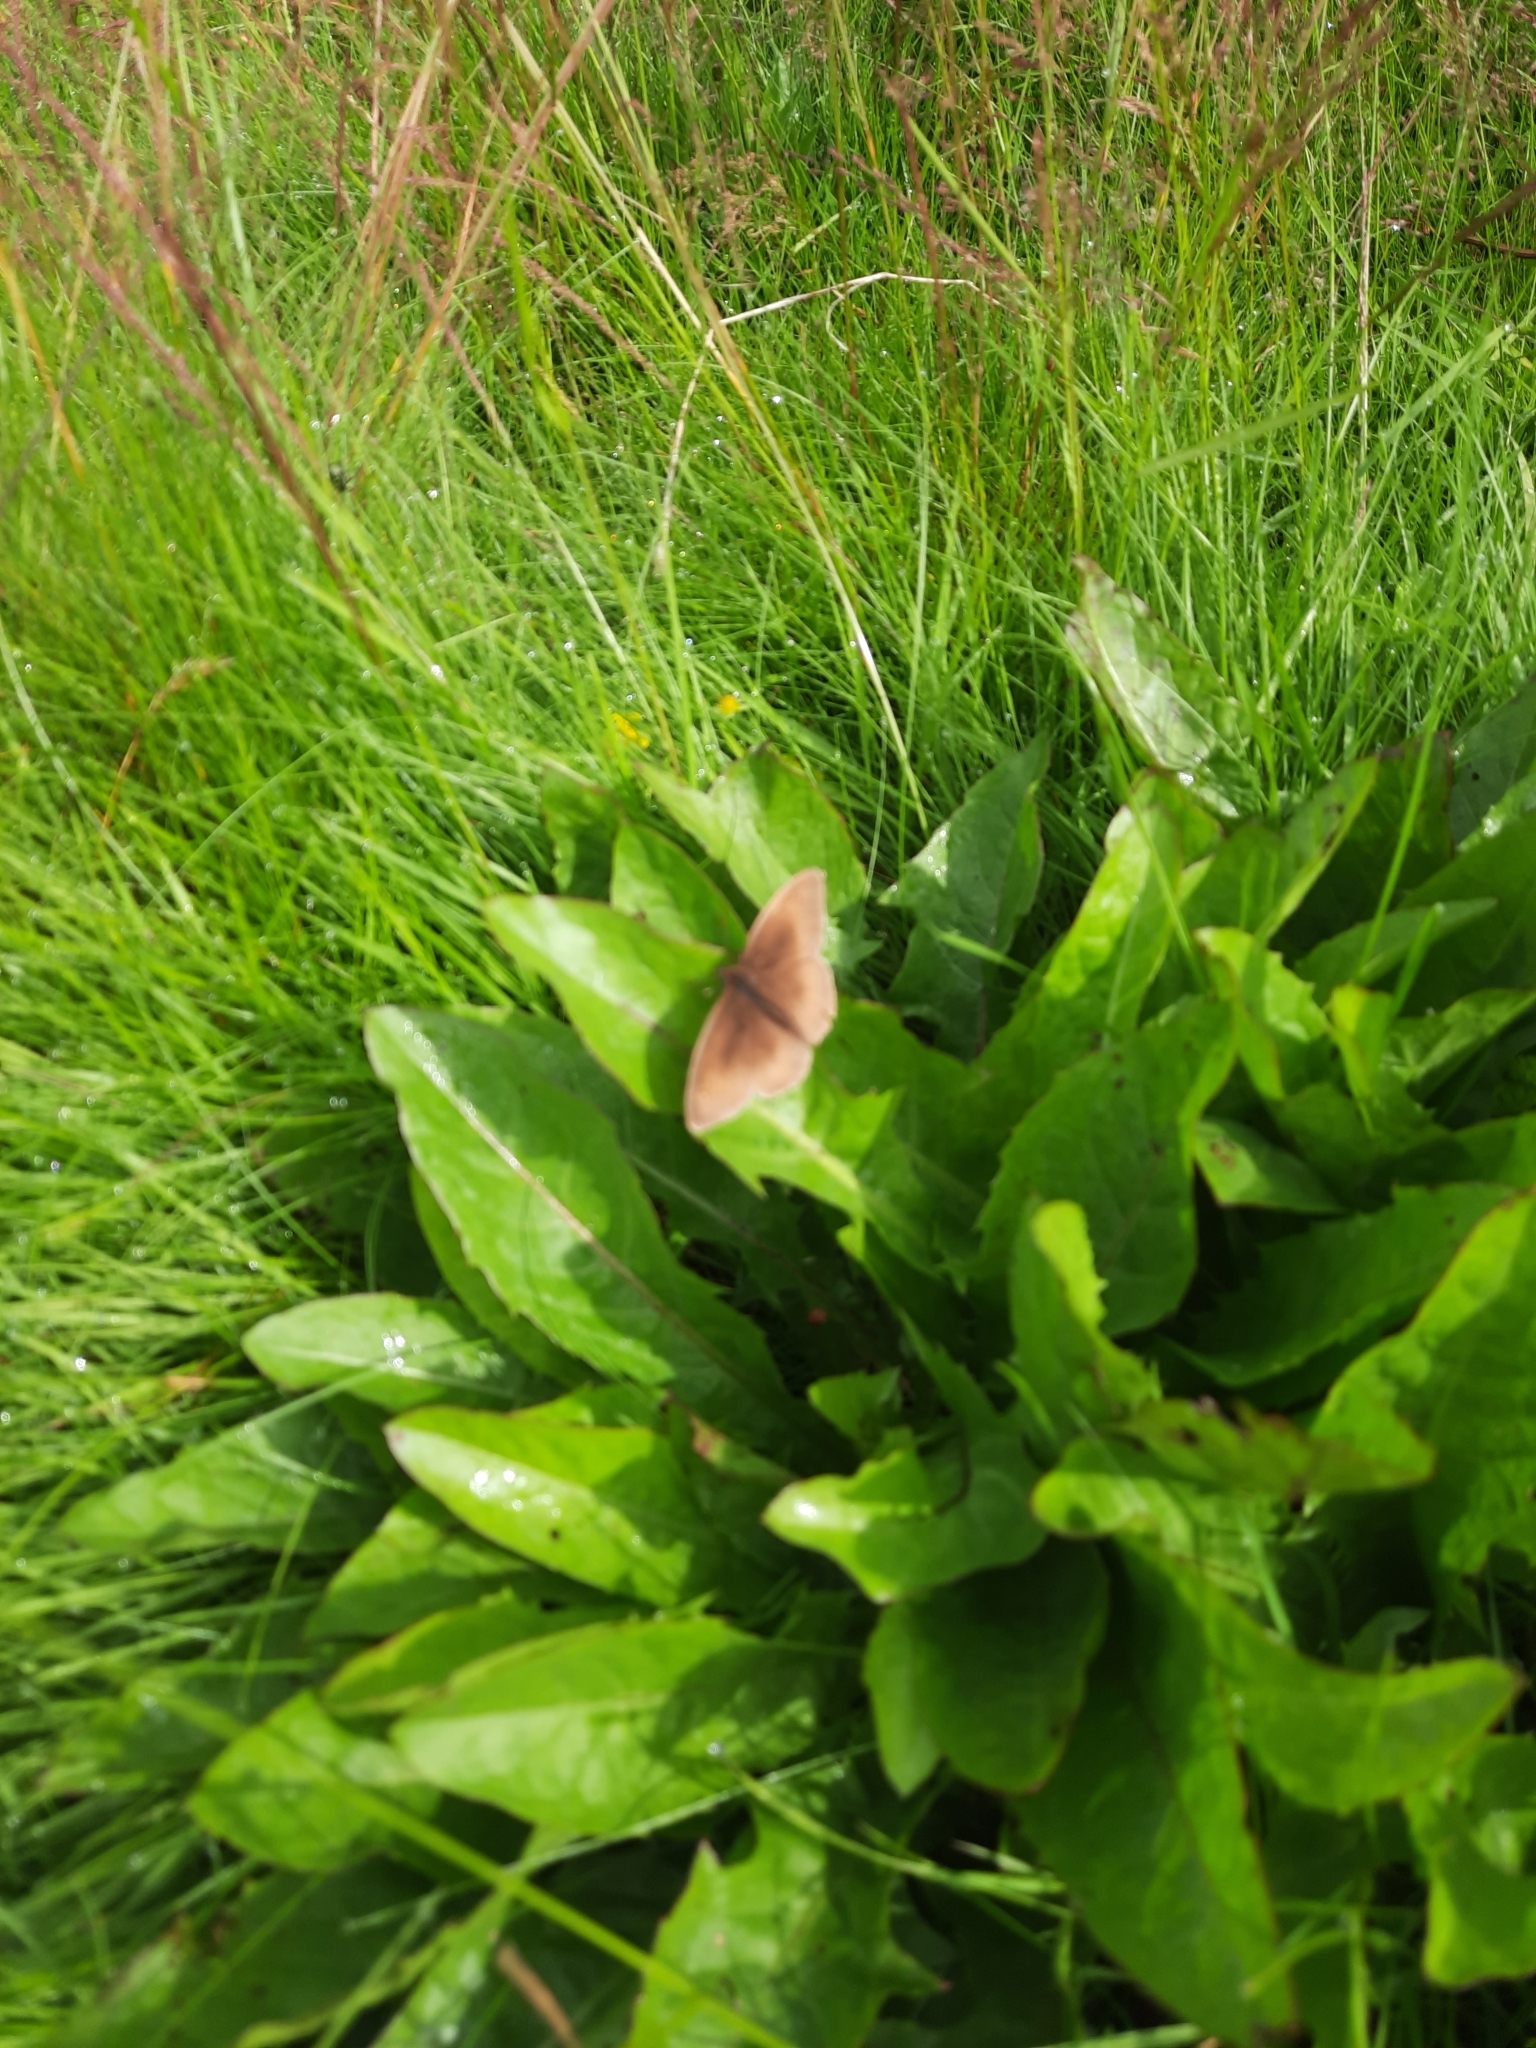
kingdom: Animalia
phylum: Arthropoda
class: Insecta
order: Lepidoptera
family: Nymphalidae
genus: Maniola
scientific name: Maniola jurtina
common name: Meadow brown
